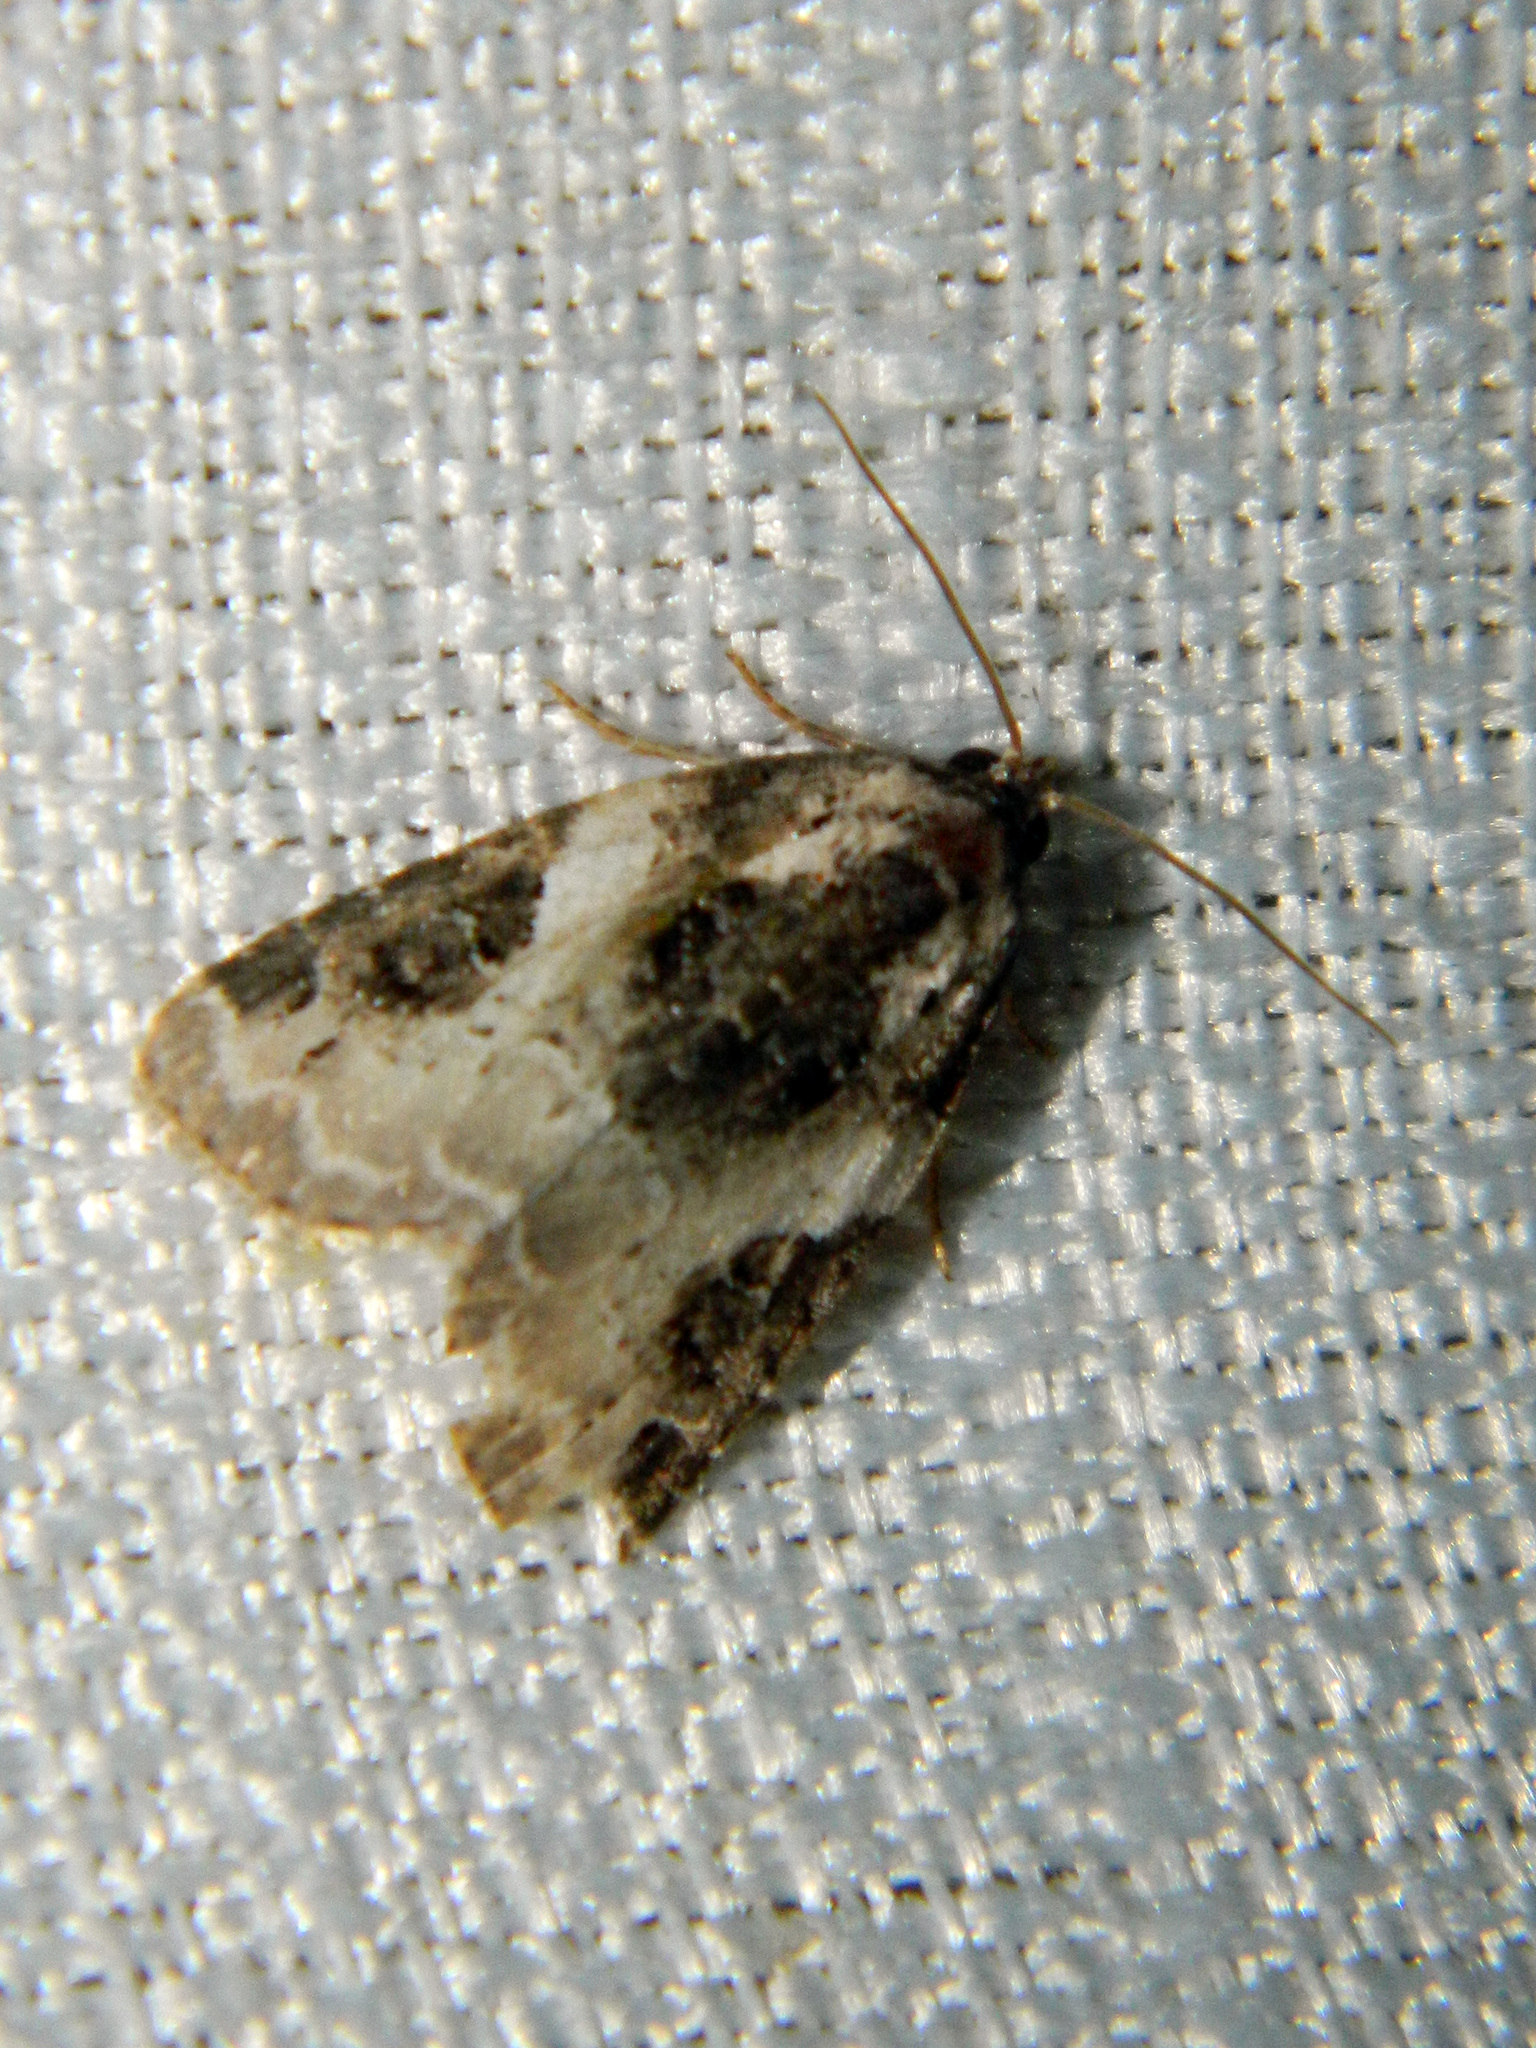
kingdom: Animalia
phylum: Arthropoda
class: Insecta
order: Lepidoptera
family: Noctuidae
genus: Pseudeustrotia
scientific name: Pseudeustrotia carneola
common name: Pink-barred lithacodia moth
